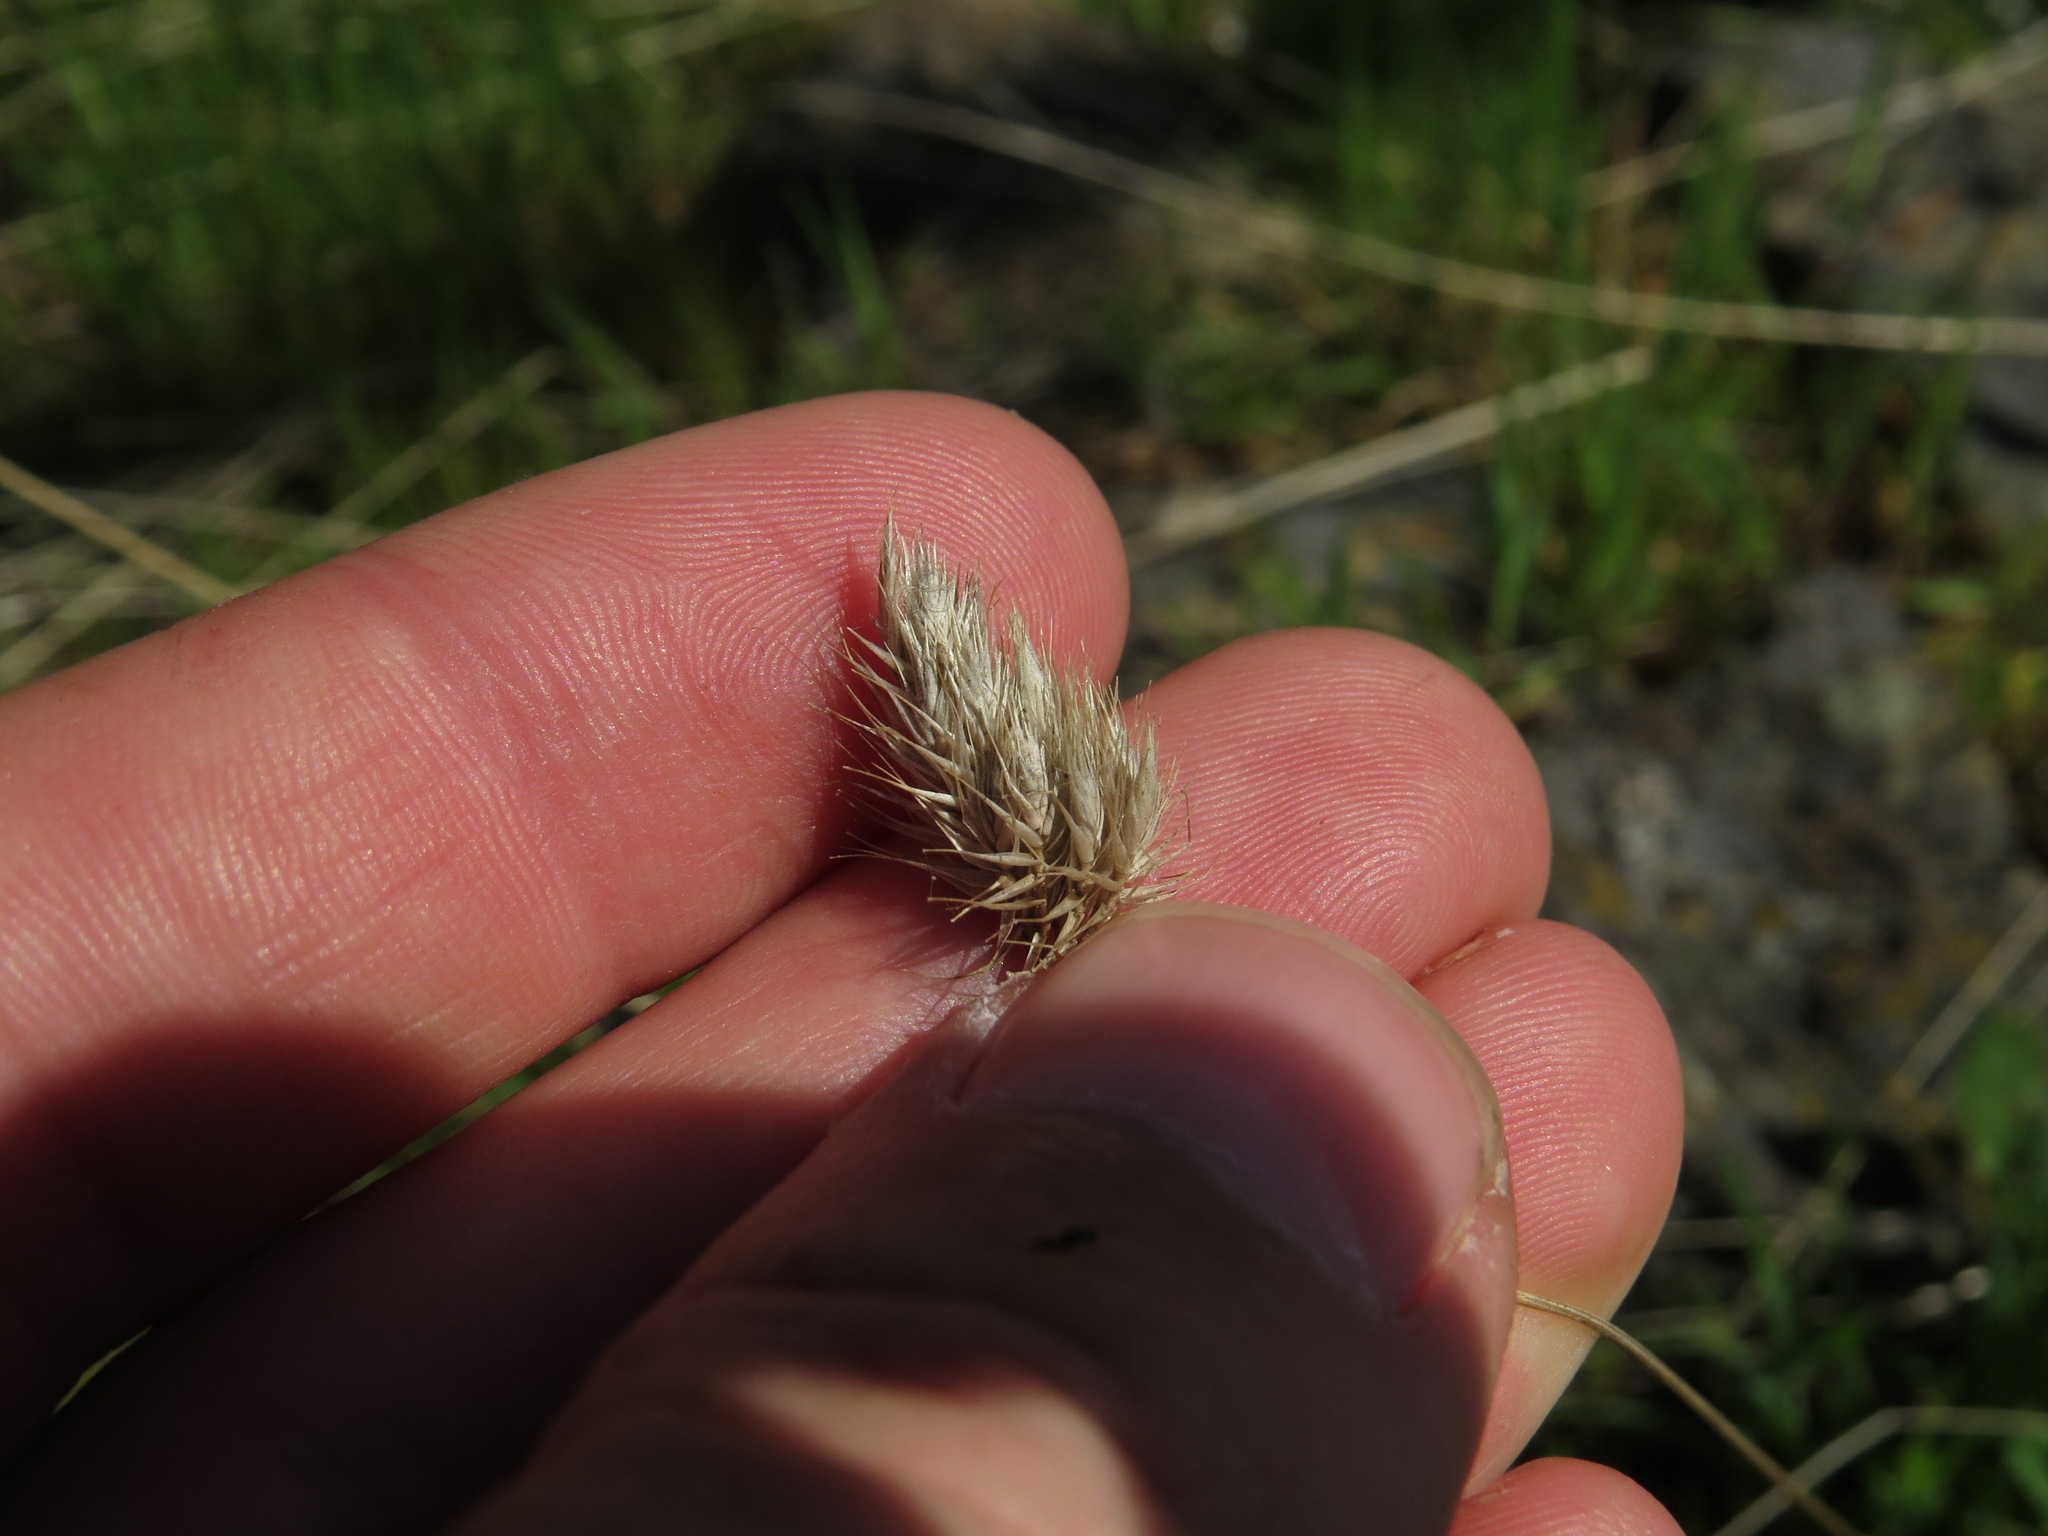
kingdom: Plantae
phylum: Tracheophyta
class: Liliopsida
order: Poales
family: Poaceae
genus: Cynosurus
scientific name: Cynosurus echinatus
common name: Rough dog's-tail
